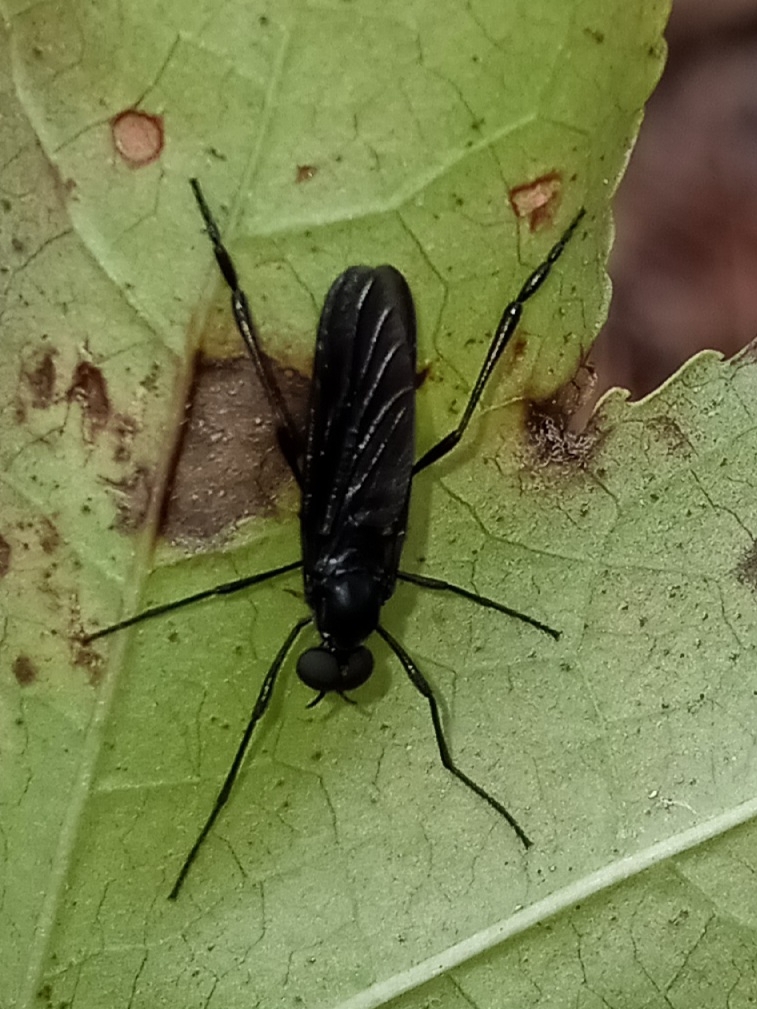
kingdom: Animalia
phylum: Arthropoda
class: Insecta
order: Diptera
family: Bibionidae
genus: Penthetria
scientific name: Penthetria heteroptera
